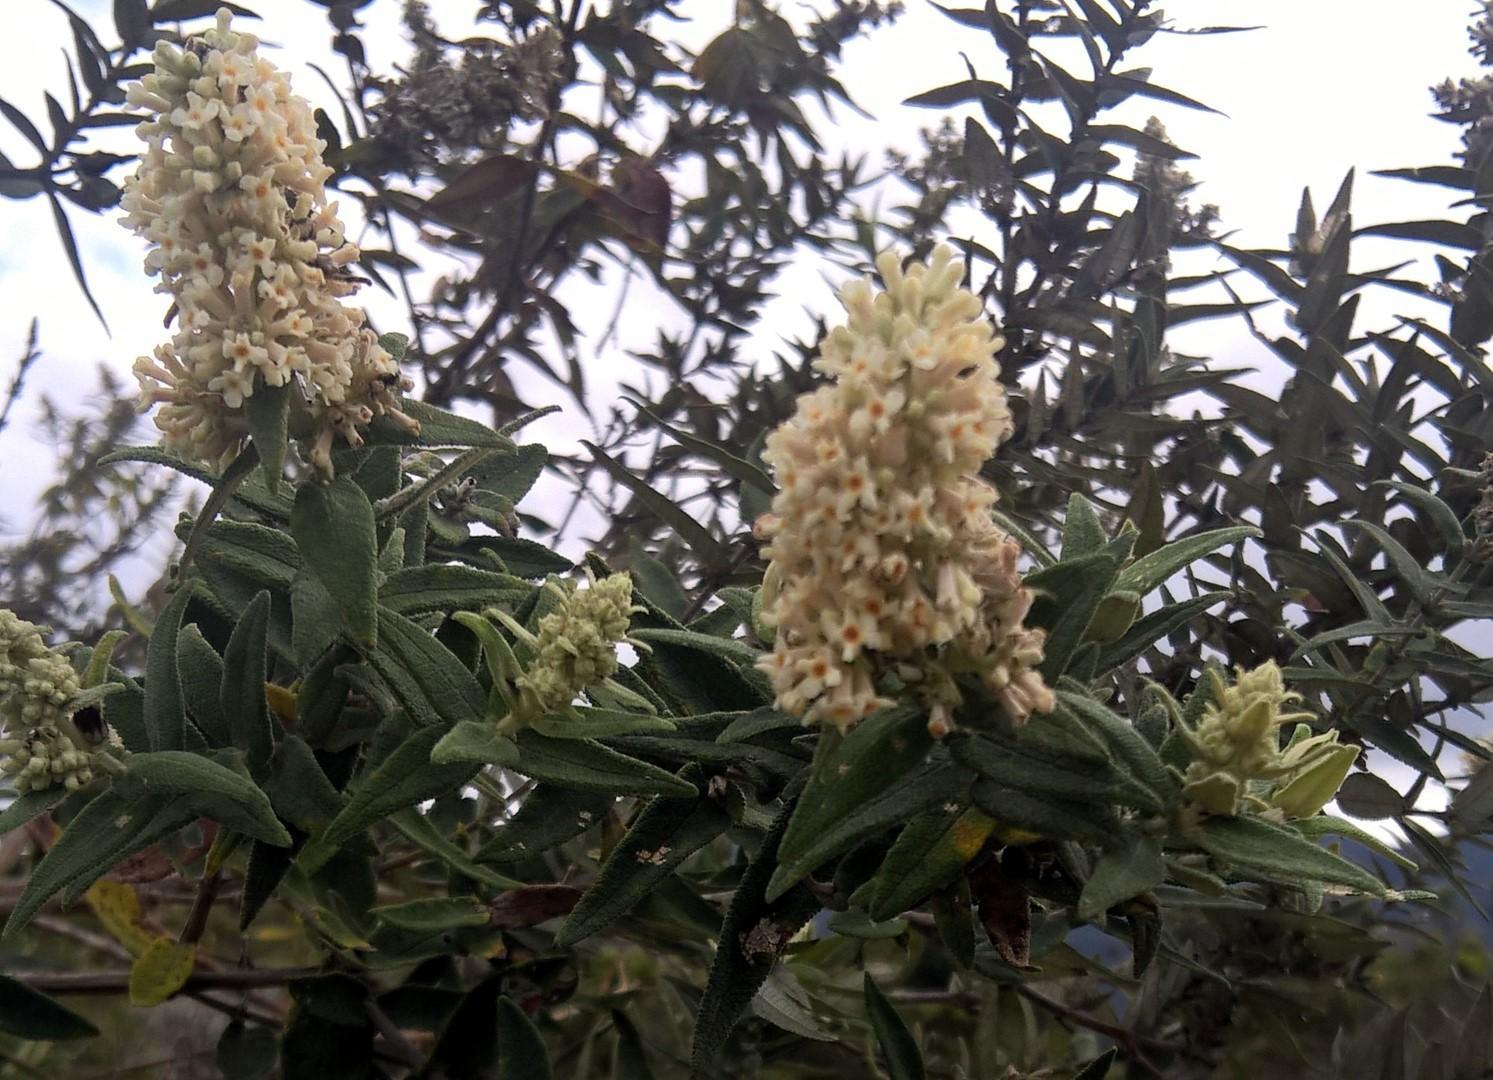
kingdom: Plantae
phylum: Tracheophyta
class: Magnoliopsida
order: Lamiales
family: Scrophulariaceae
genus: Buddleja
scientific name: Buddleja salviifolia
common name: Sagewood
